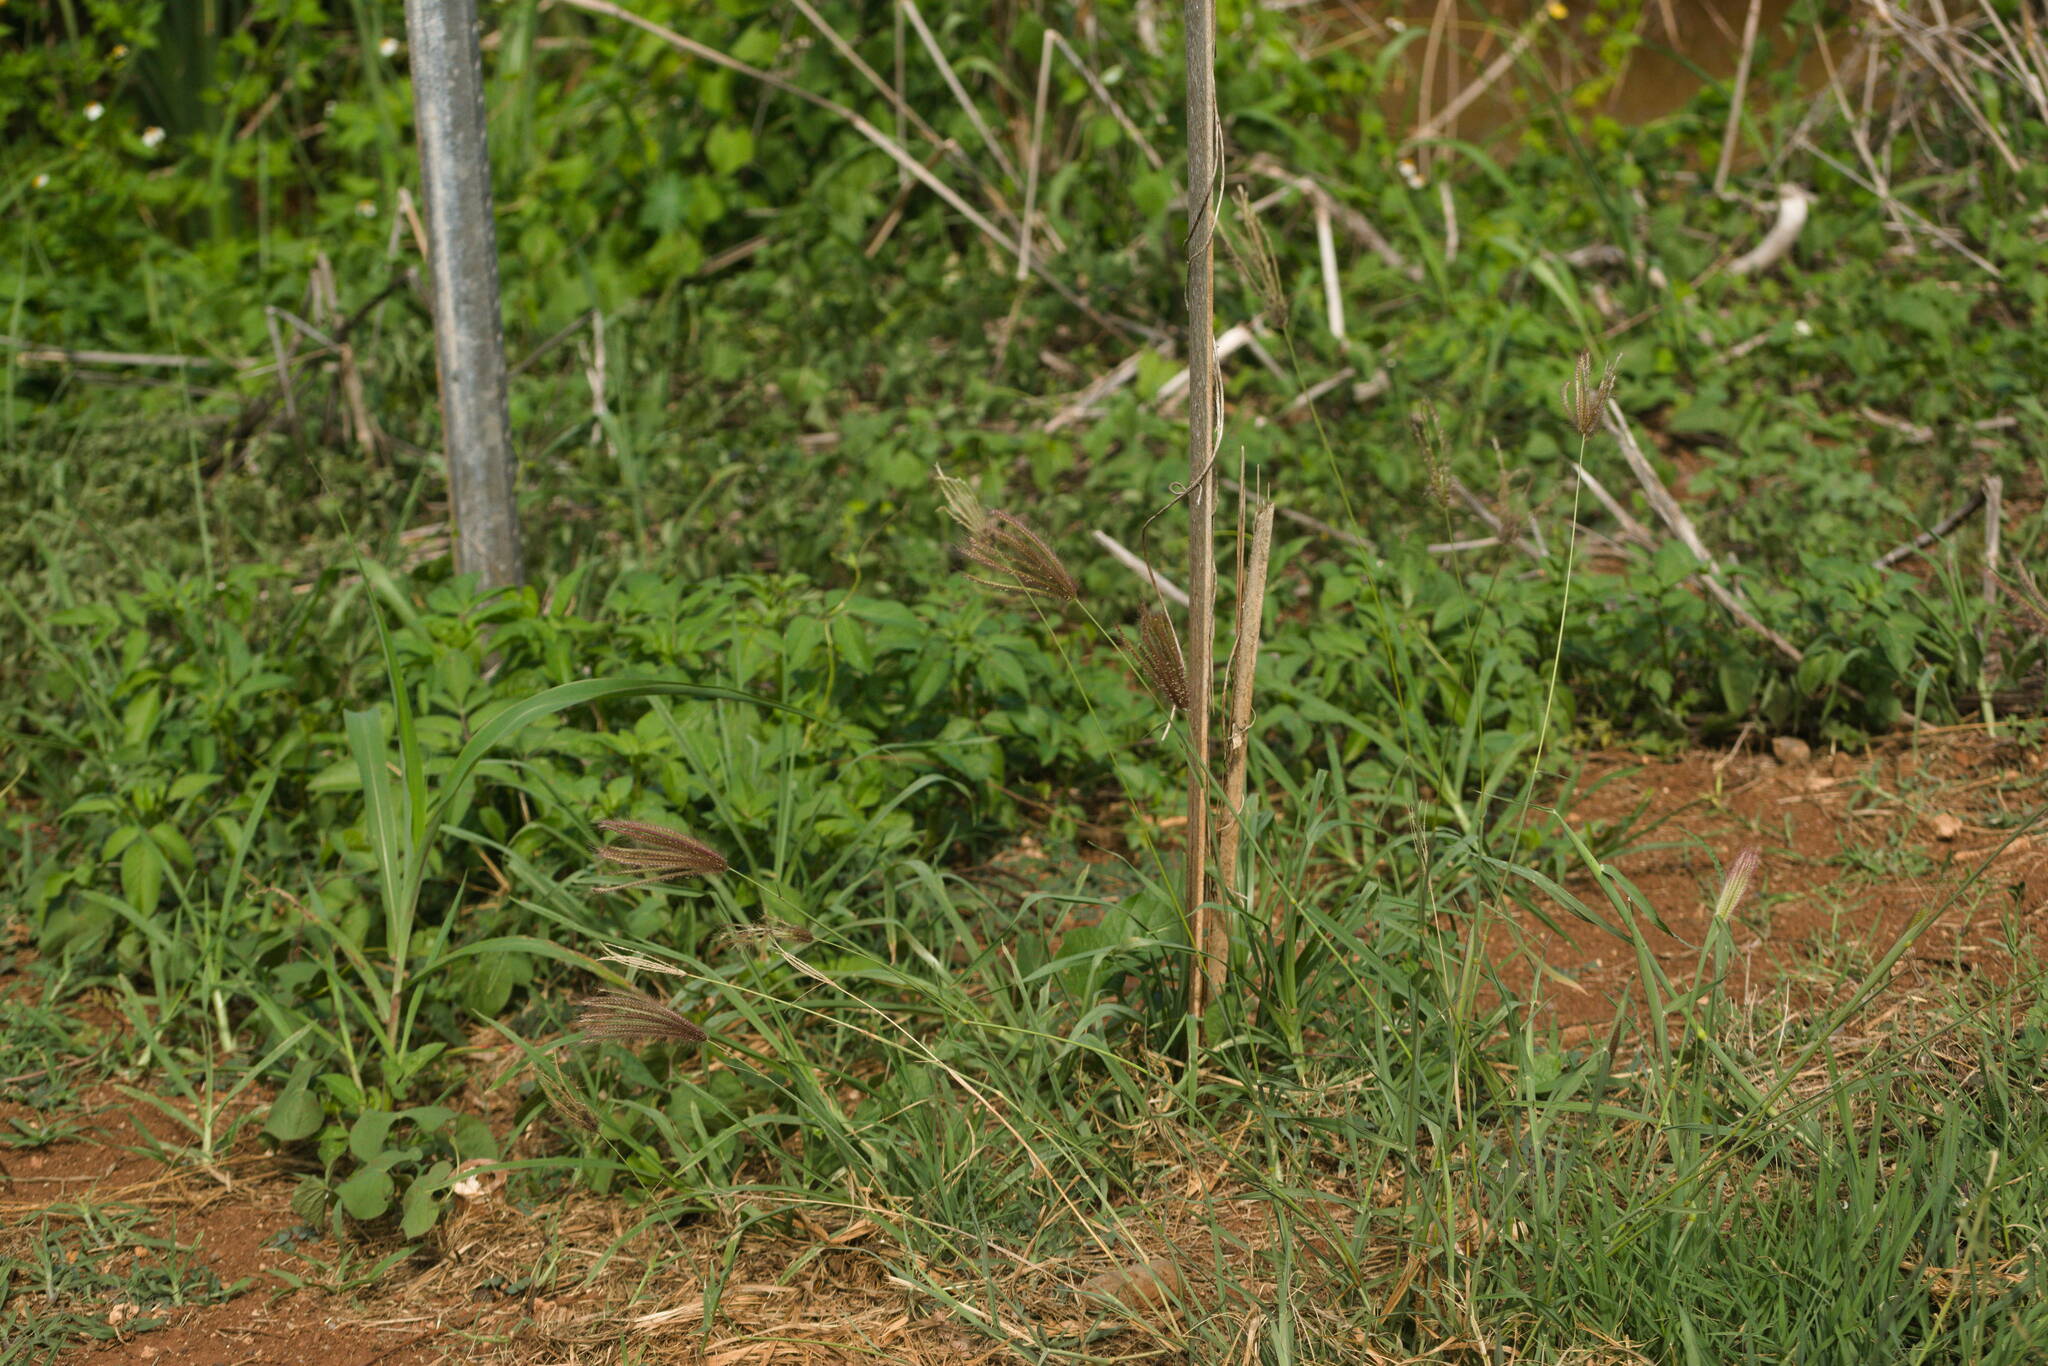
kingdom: Plantae
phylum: Tracheophyta
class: Liliopsida
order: Poales
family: Poaceae
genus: Chloris
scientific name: Chloris barbata
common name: Swollen fingergrass
